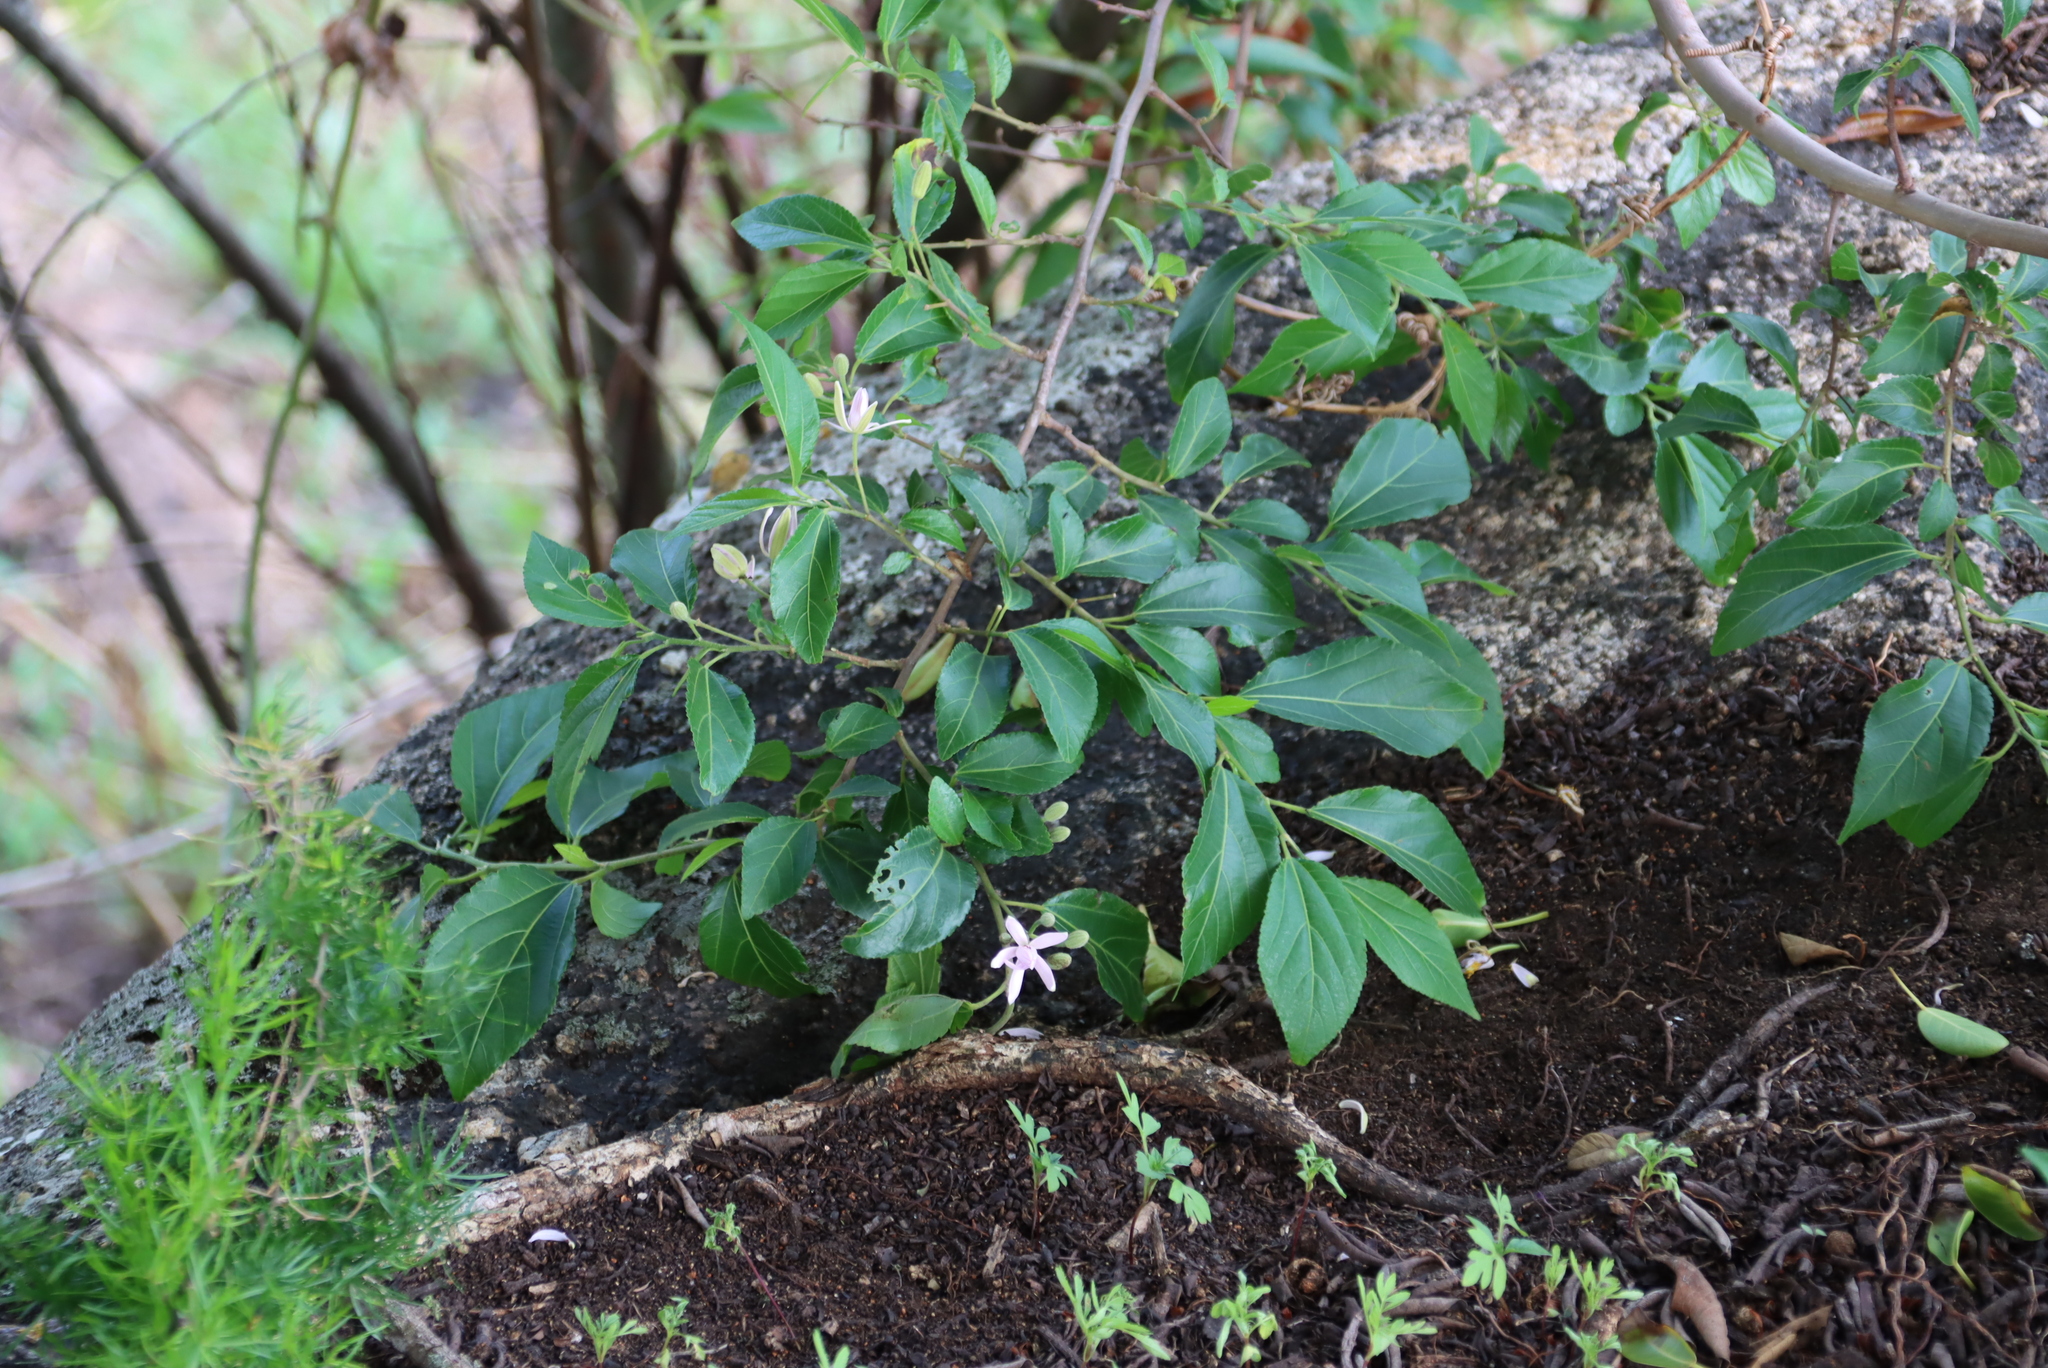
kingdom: Plantae
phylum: Tracheophyta
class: Magnoliopsida
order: Malvales
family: Malvaceae
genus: Grewia
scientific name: Grewia occidentalis
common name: Crossberry
